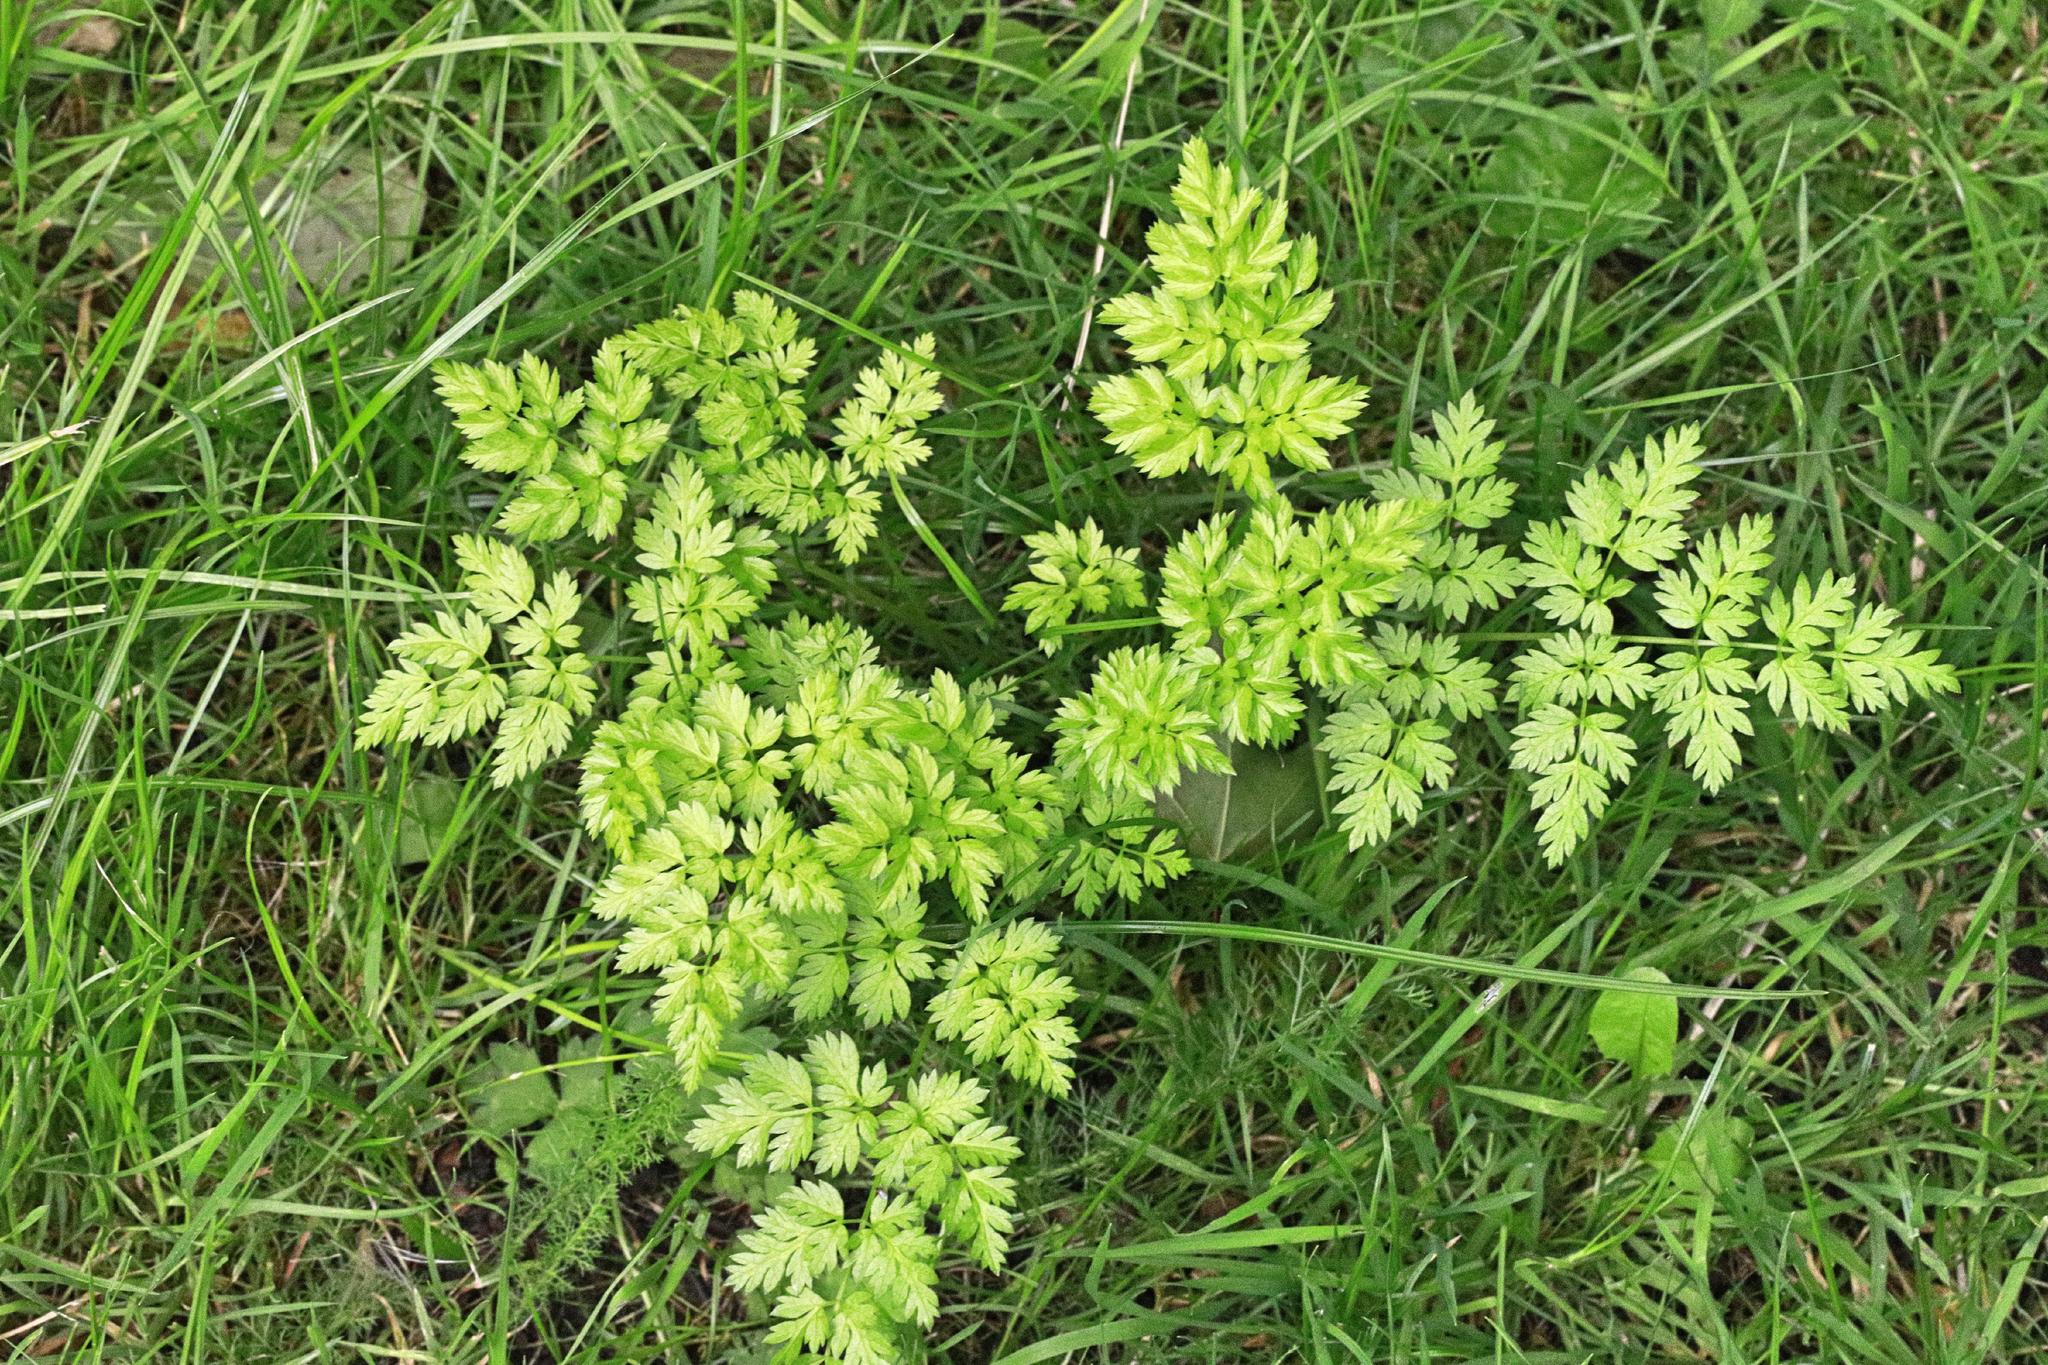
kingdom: Plantae
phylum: Tracheophyta
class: Magnoliopsida
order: Apiales
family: Apiaceae
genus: Anthriscus
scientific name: Anthriscus sylvestris
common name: Cow parsley
